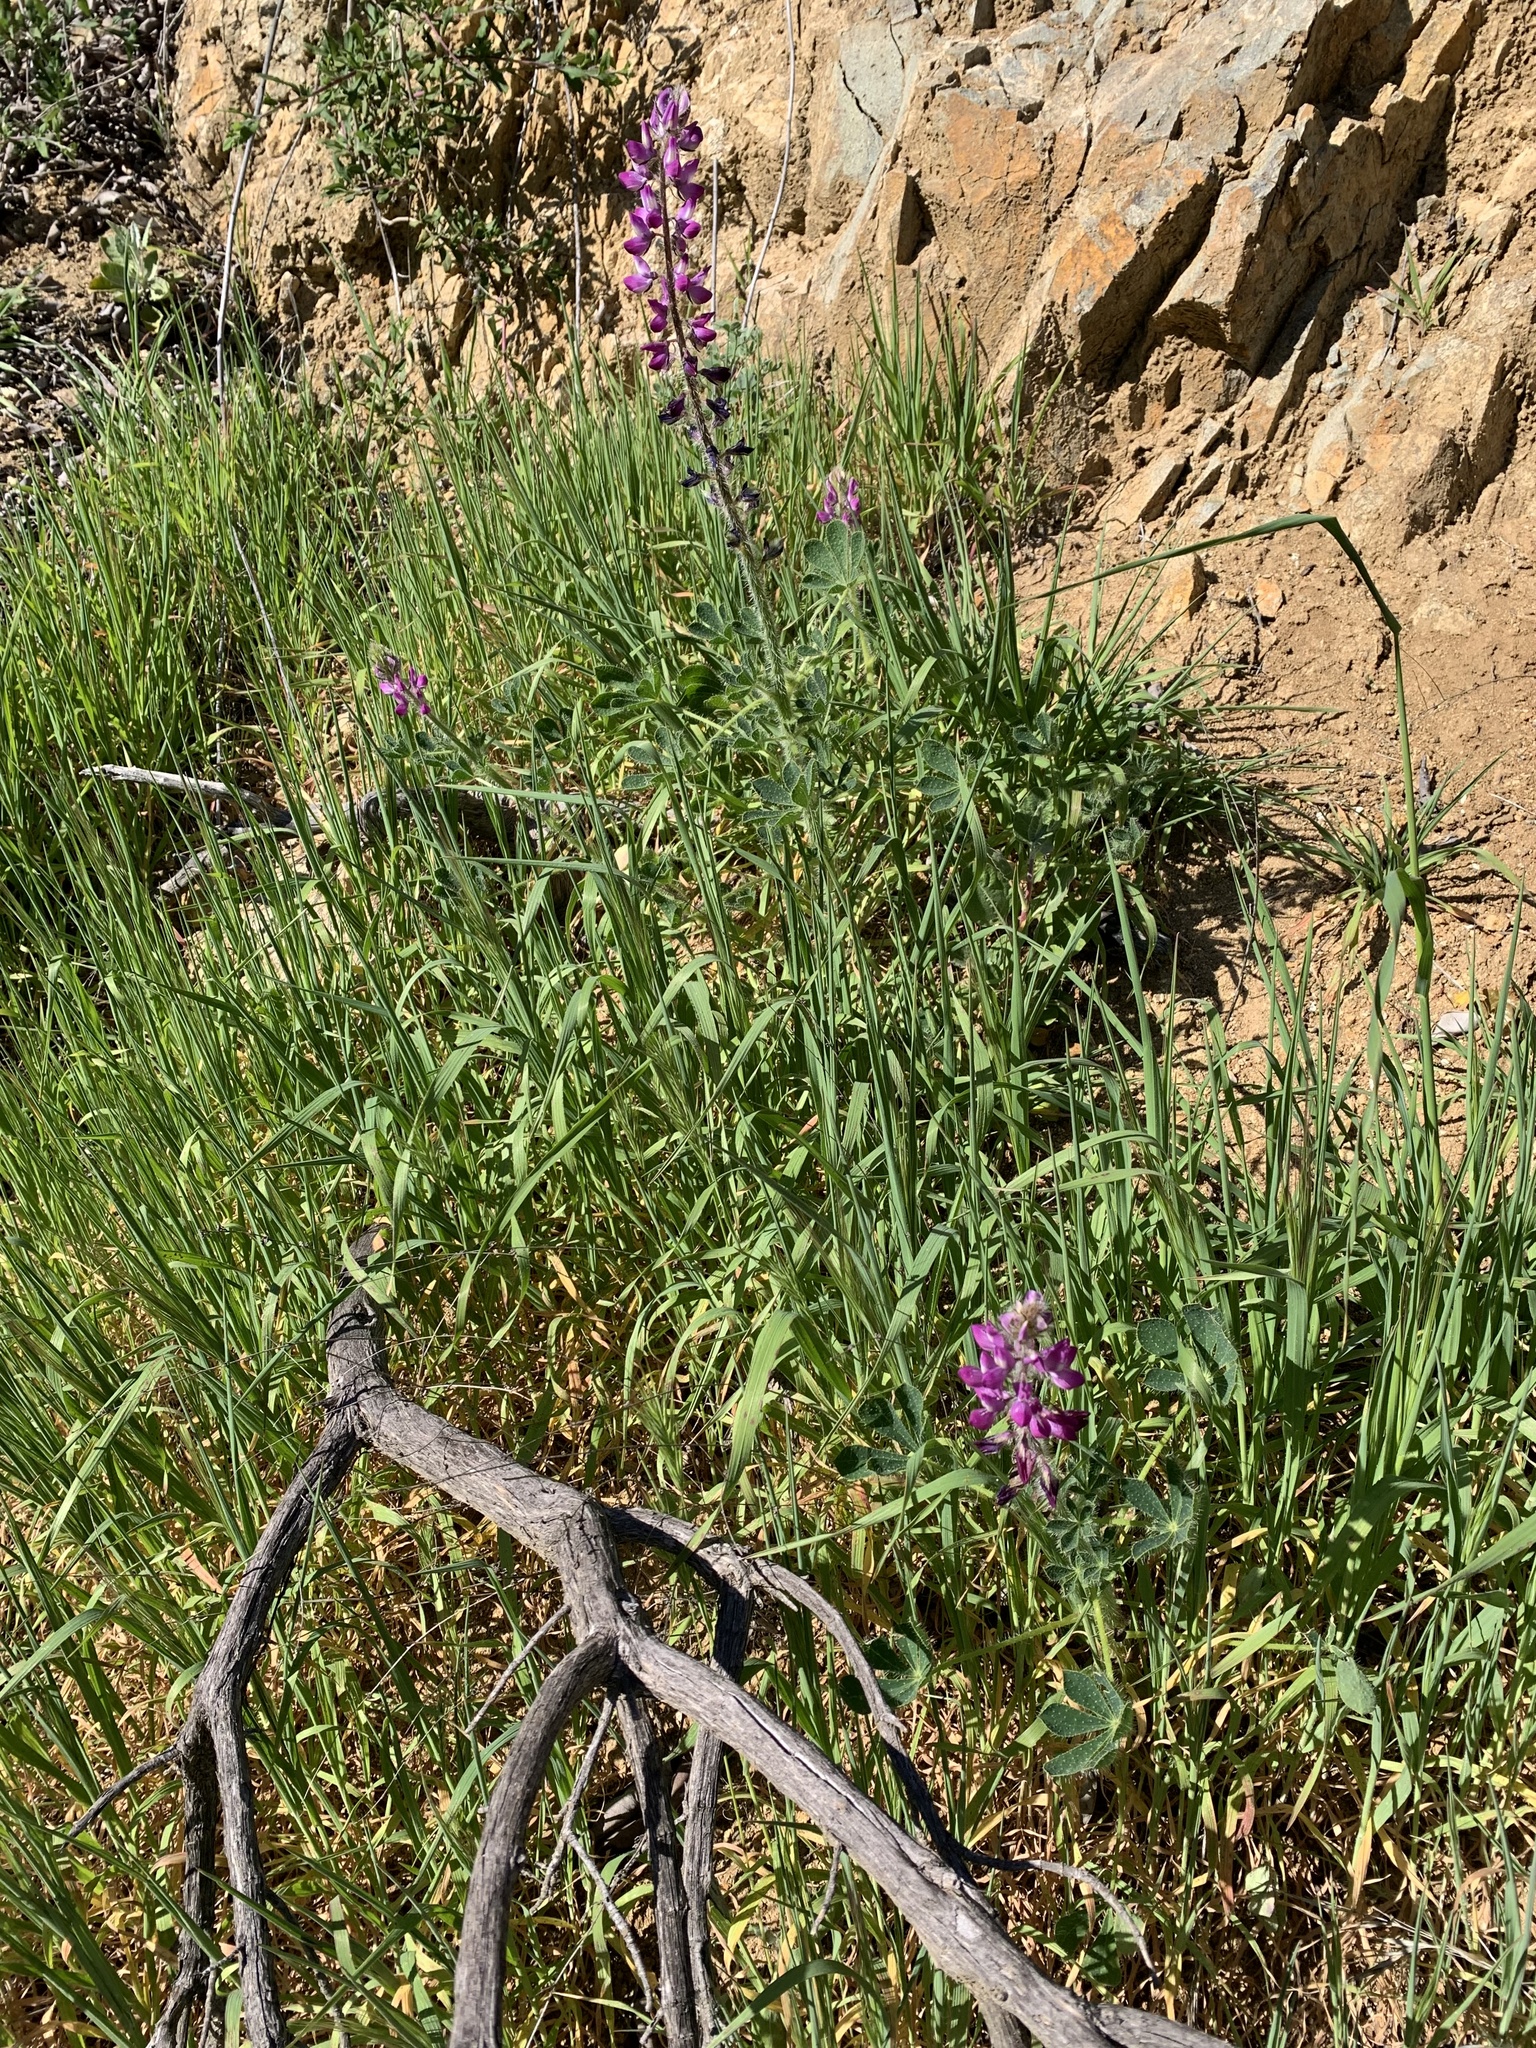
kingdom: Plantae
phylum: Tracheophyta
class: Magnoliopsida
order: Fabales
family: Fabaceae
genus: Lupinus
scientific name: Lupinus hirsutissimus
